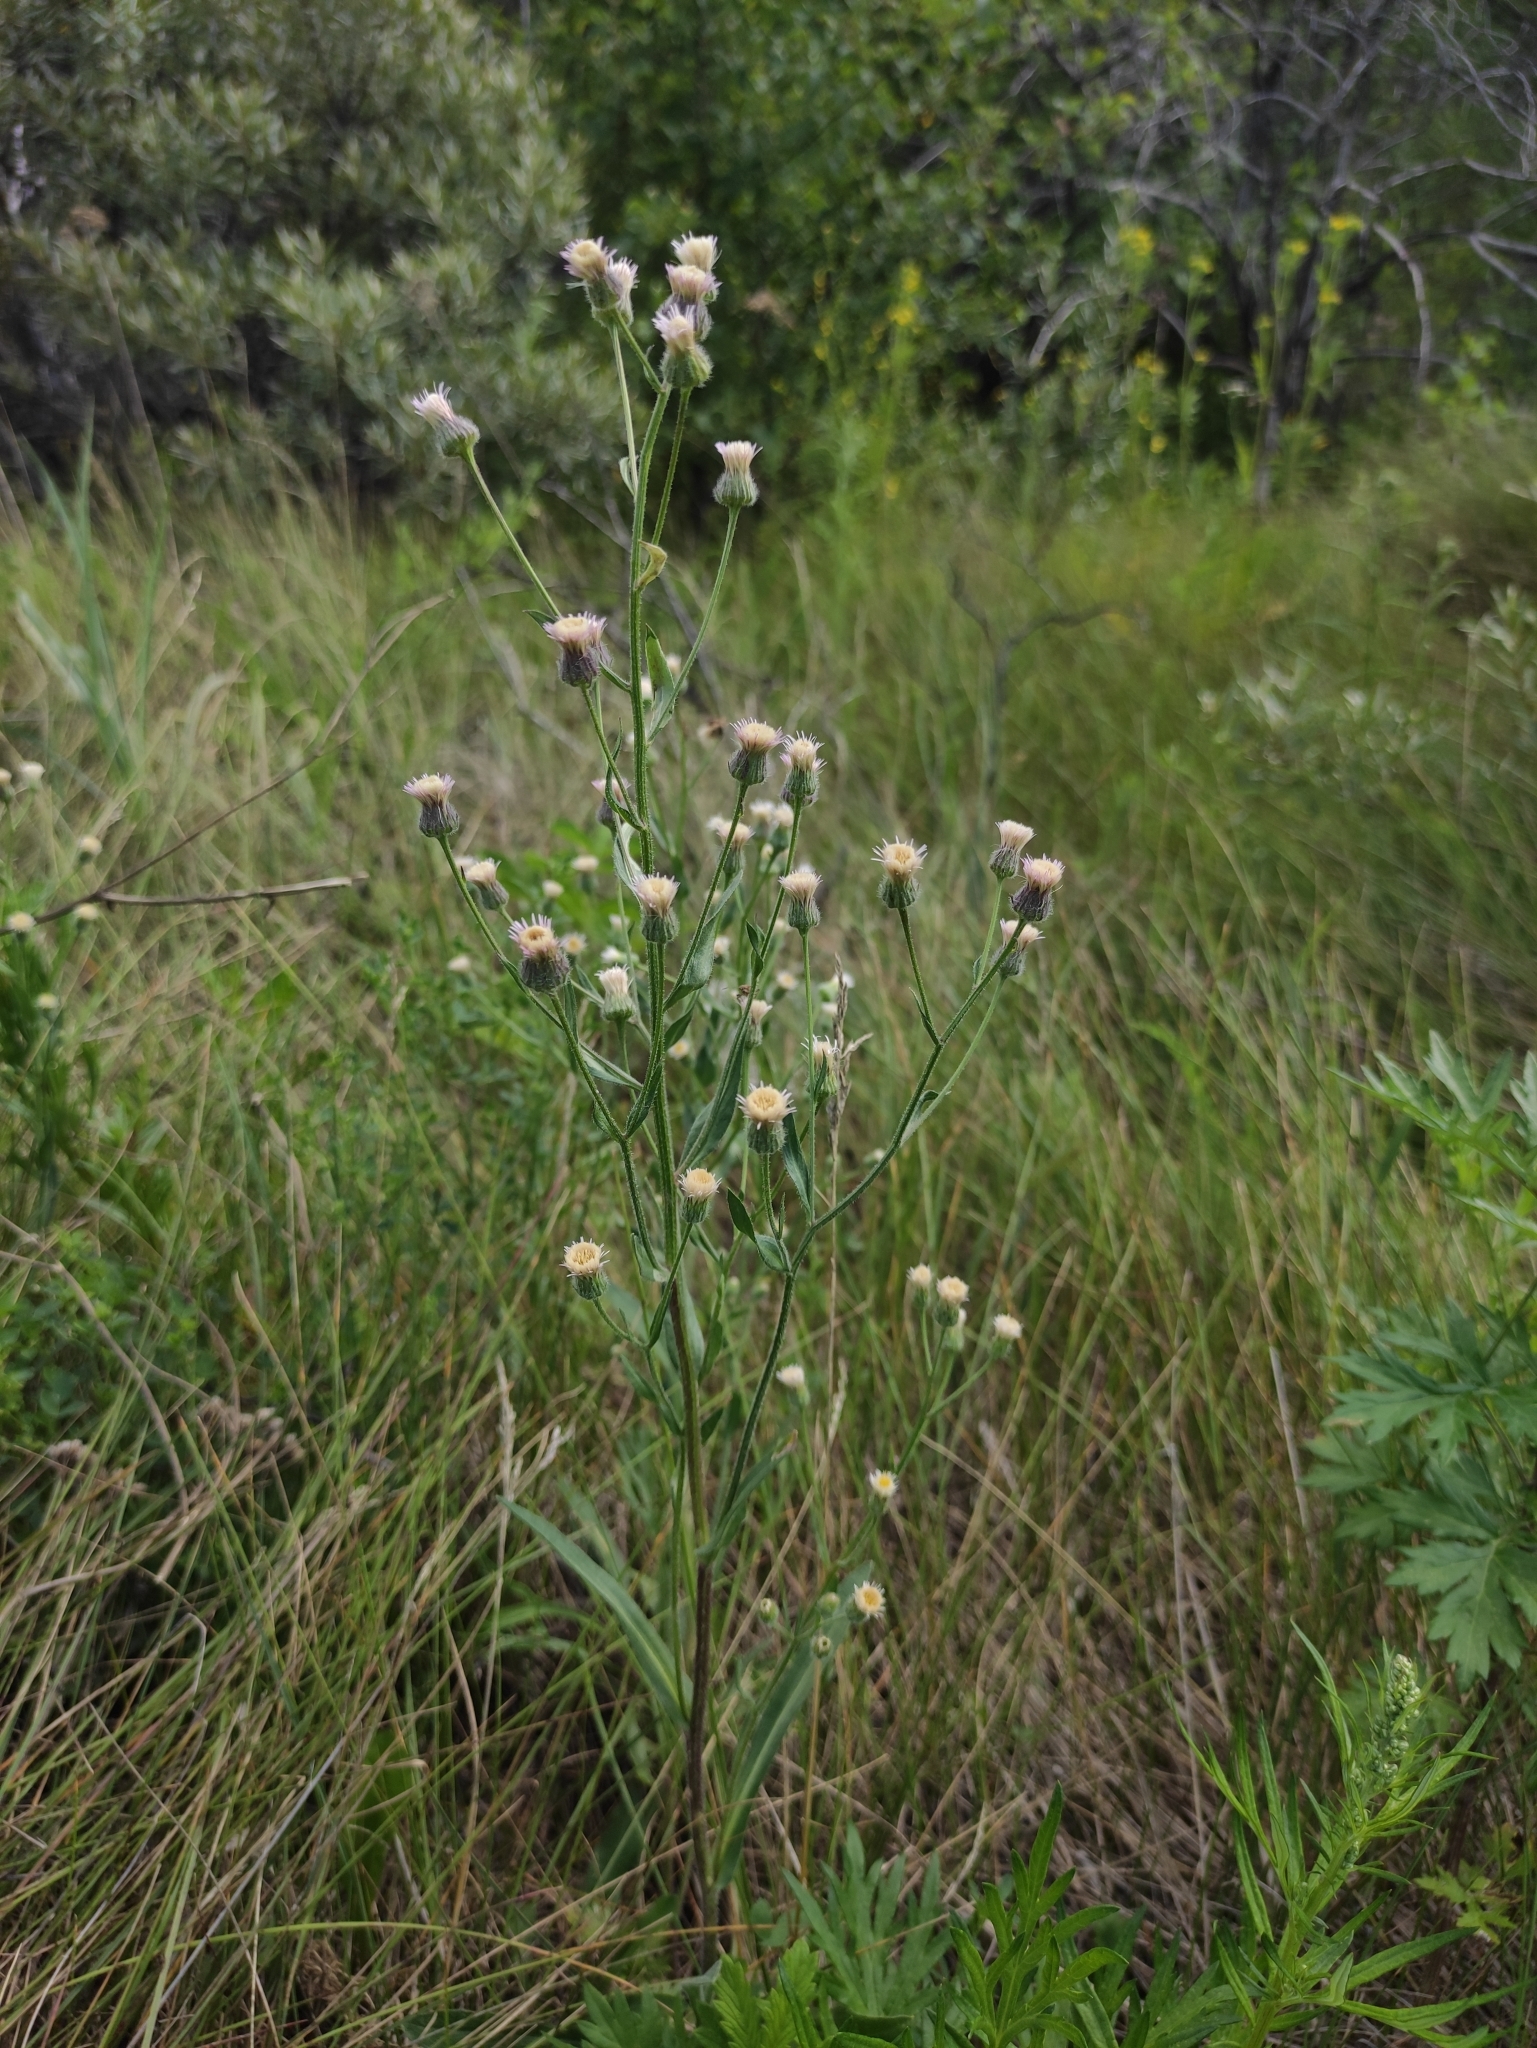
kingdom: Plantae
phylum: Tracheophyta
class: Magnoliopsida
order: Asterales
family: Asteraceae
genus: Erigeron
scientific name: Erigeron acris
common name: Blue fleabane
